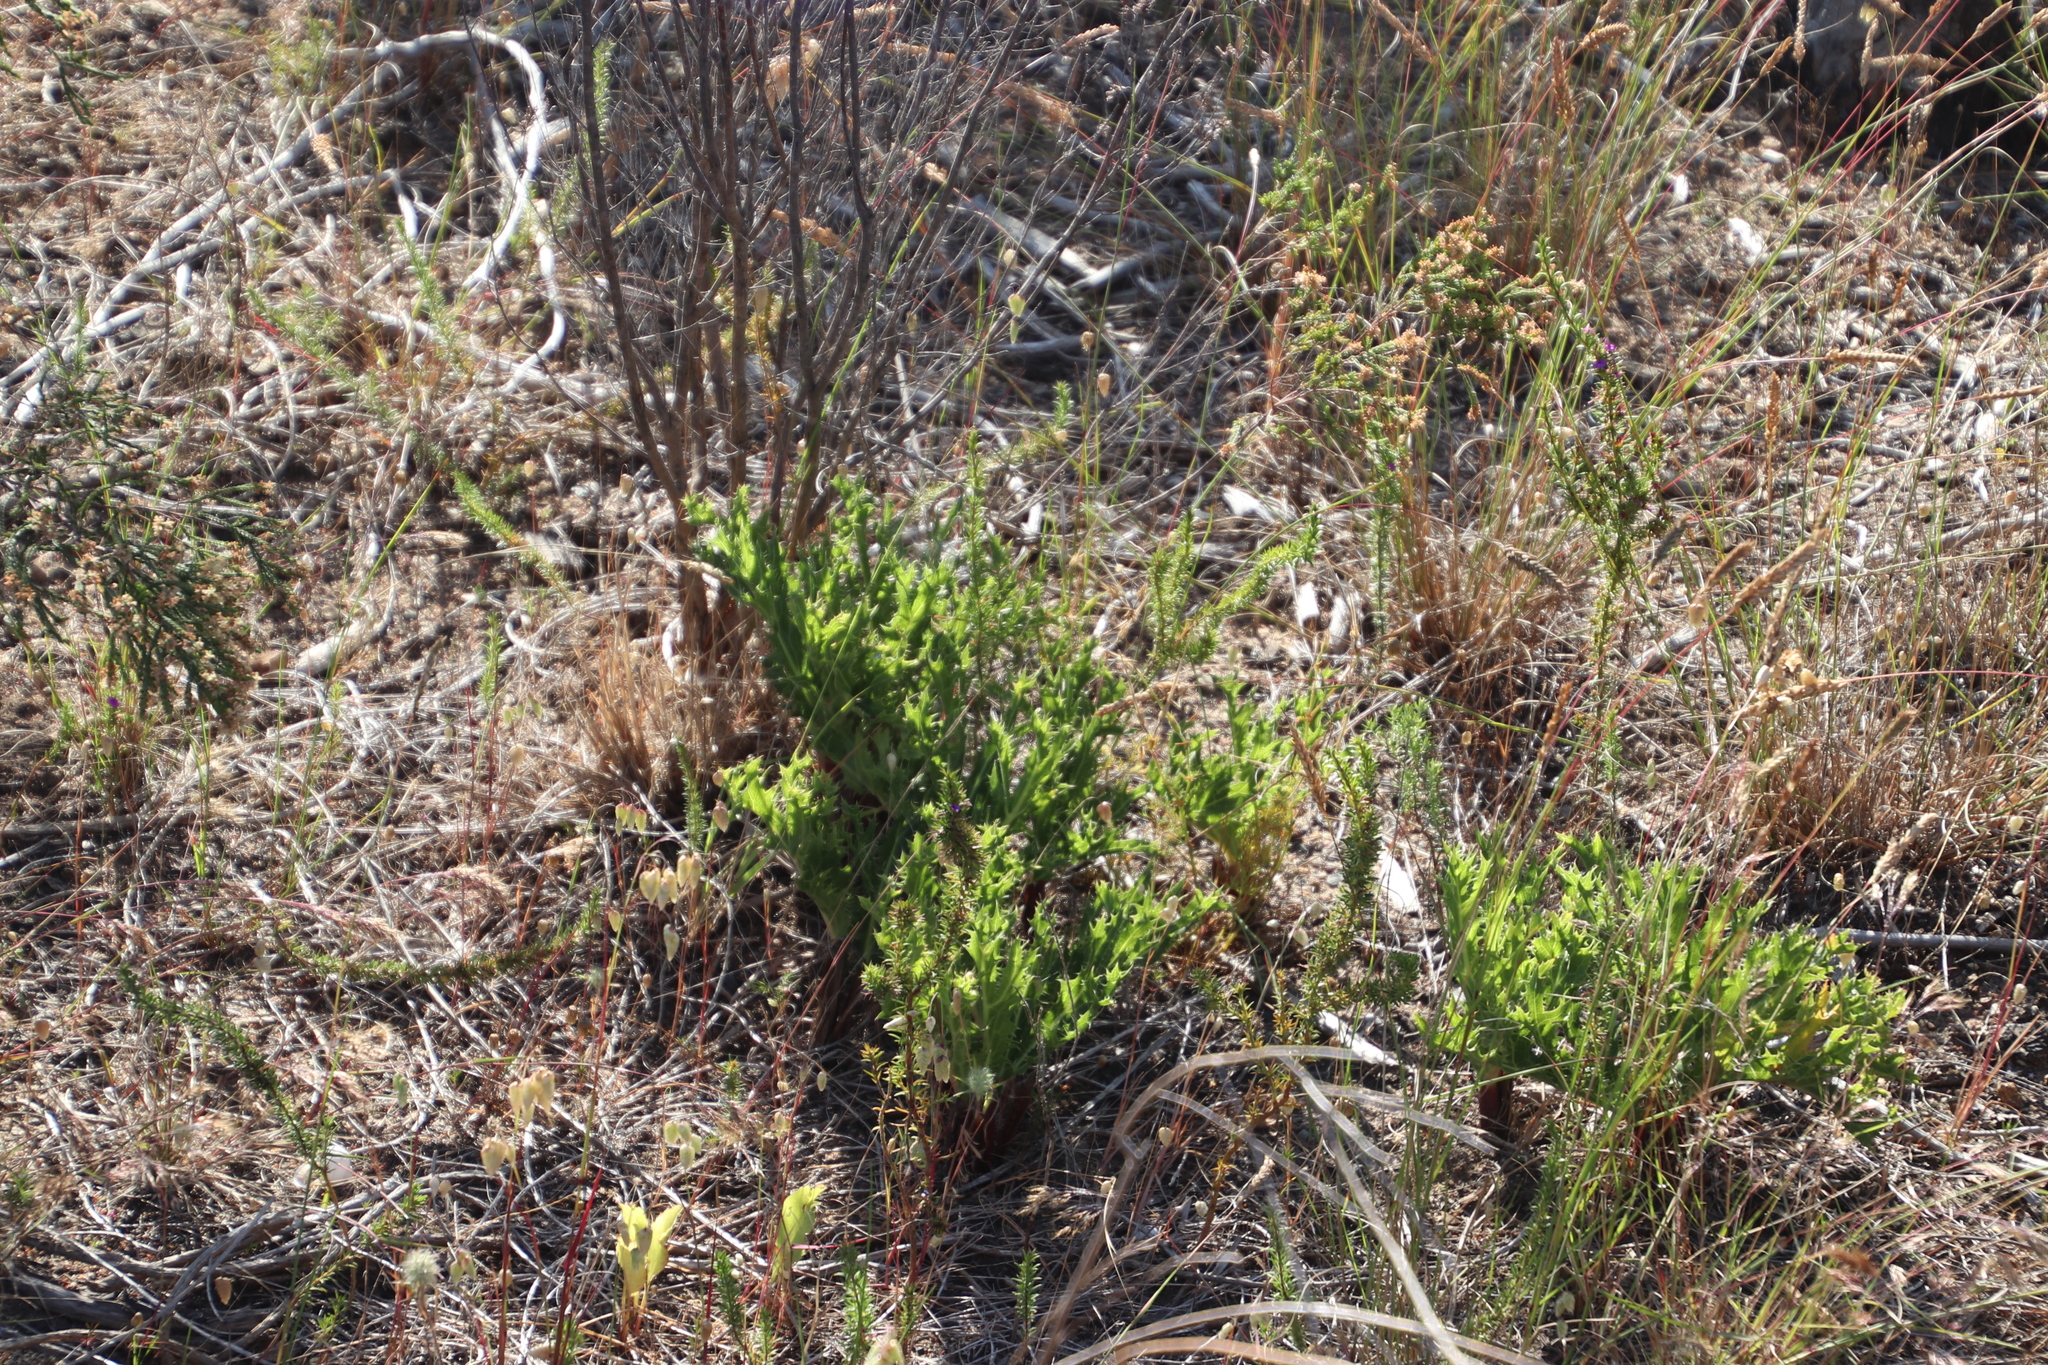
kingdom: Plantae
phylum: Tracheophyta
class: Magnoliopsida
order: Apiales
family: Apiaceae
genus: Lichtensteinia
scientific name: Lichtensteinia lacera
